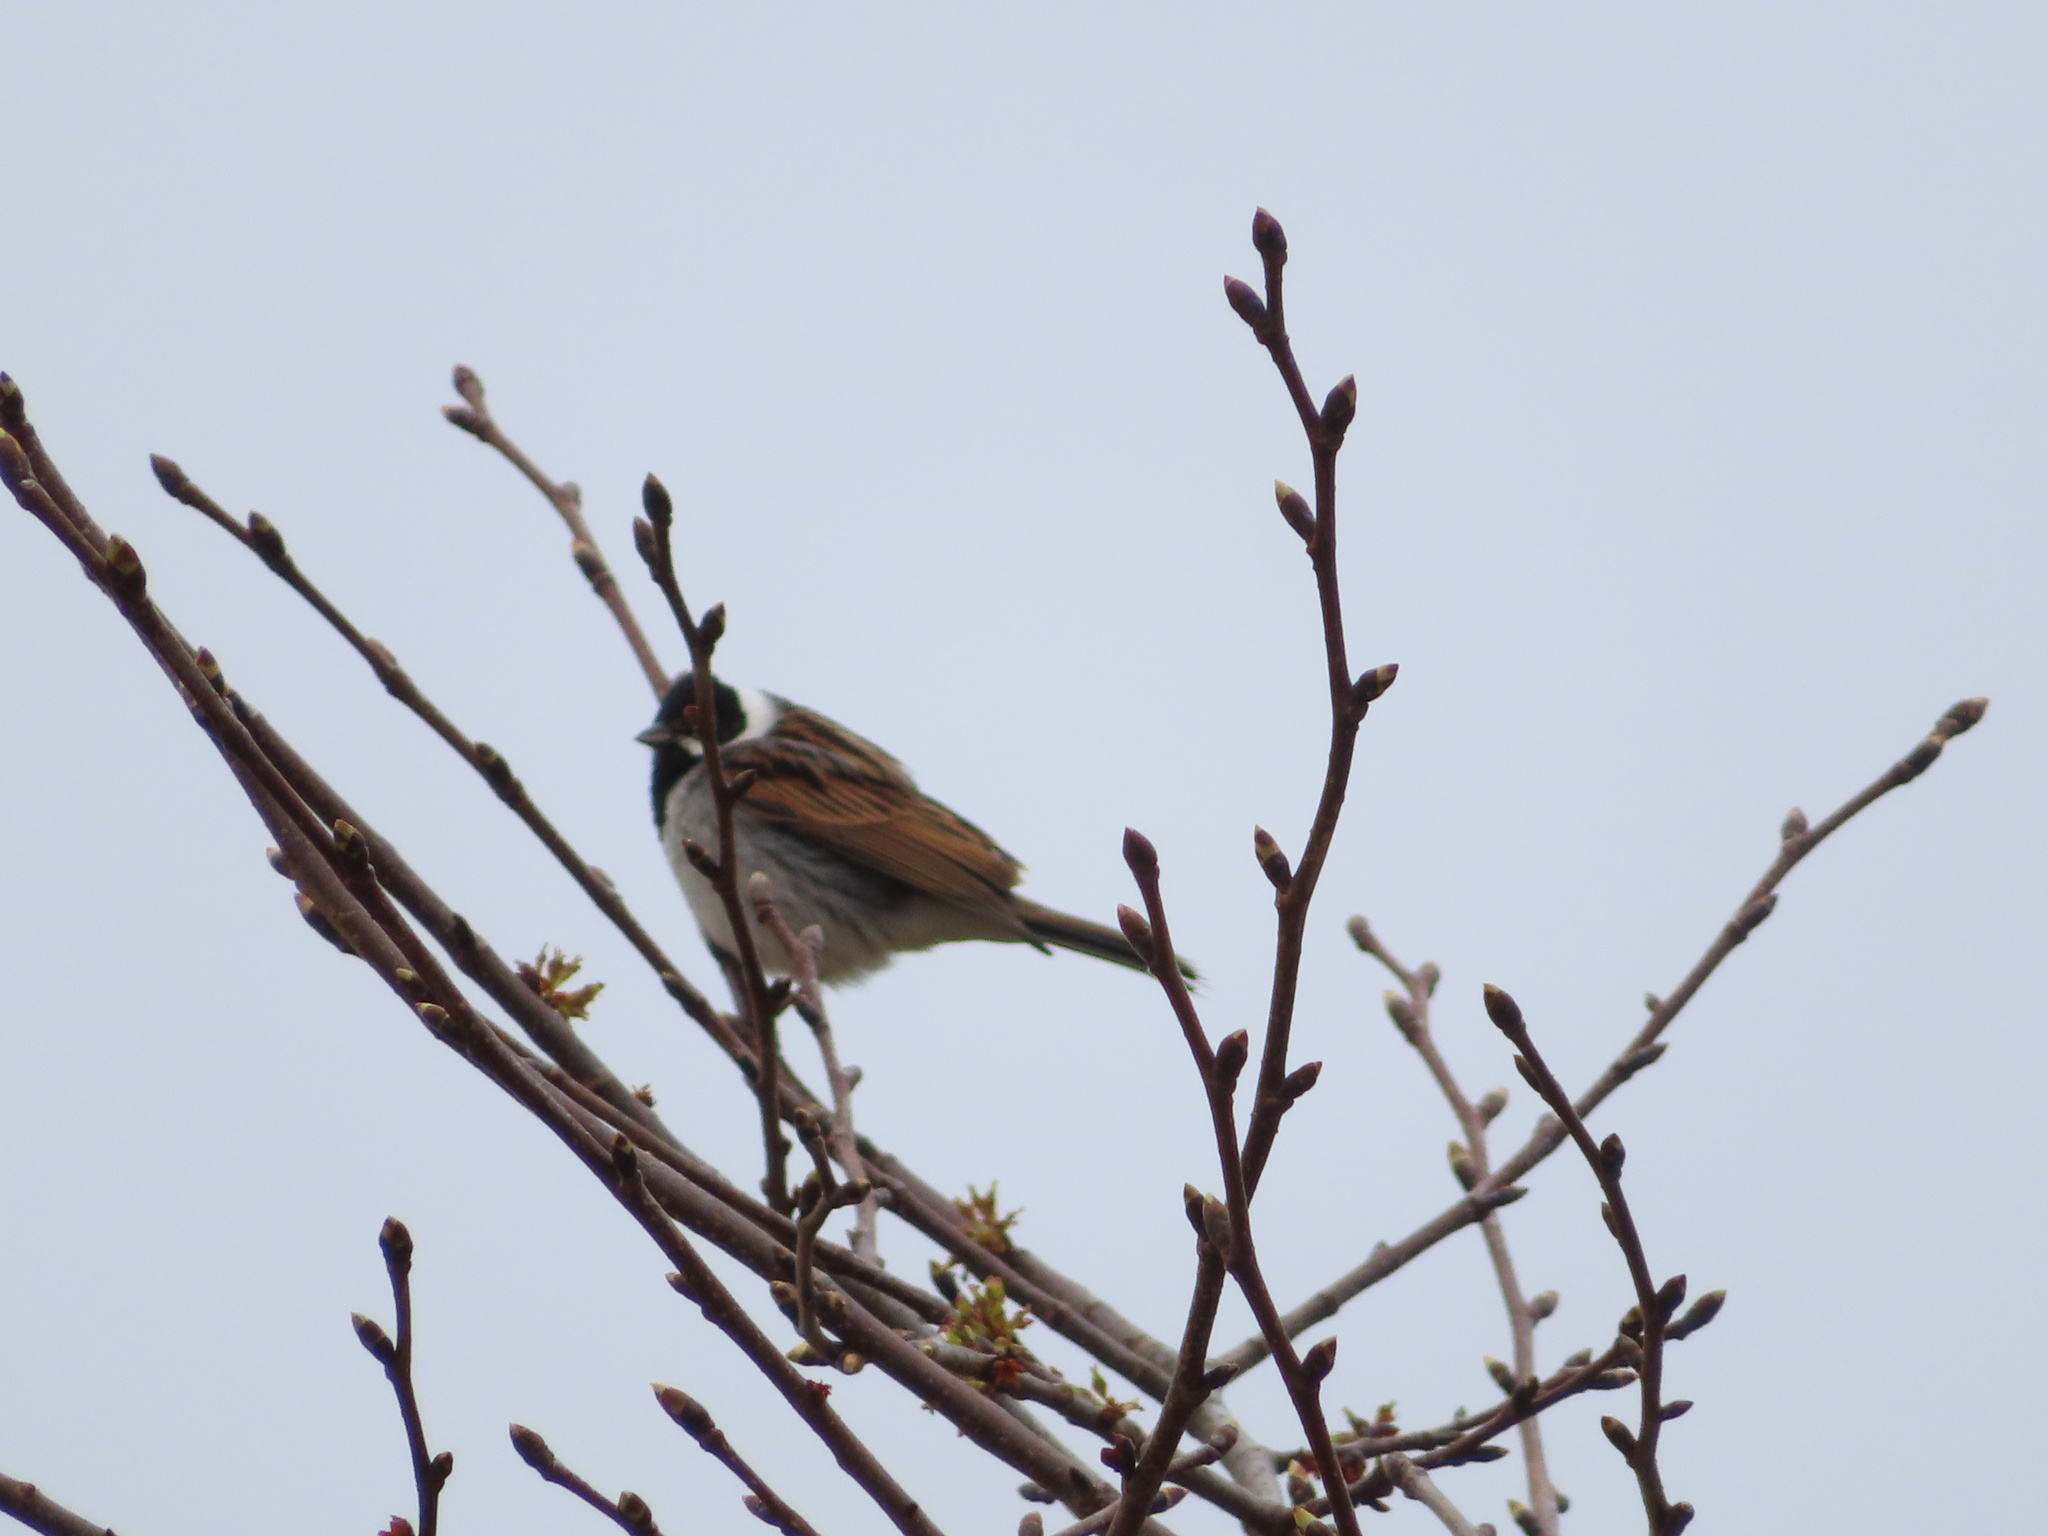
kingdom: Animalia
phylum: Chordata
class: Aves
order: Passeriformes
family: Emberizidae
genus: Emberiza
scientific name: Emberiza schoeniclus
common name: Reed bunting
